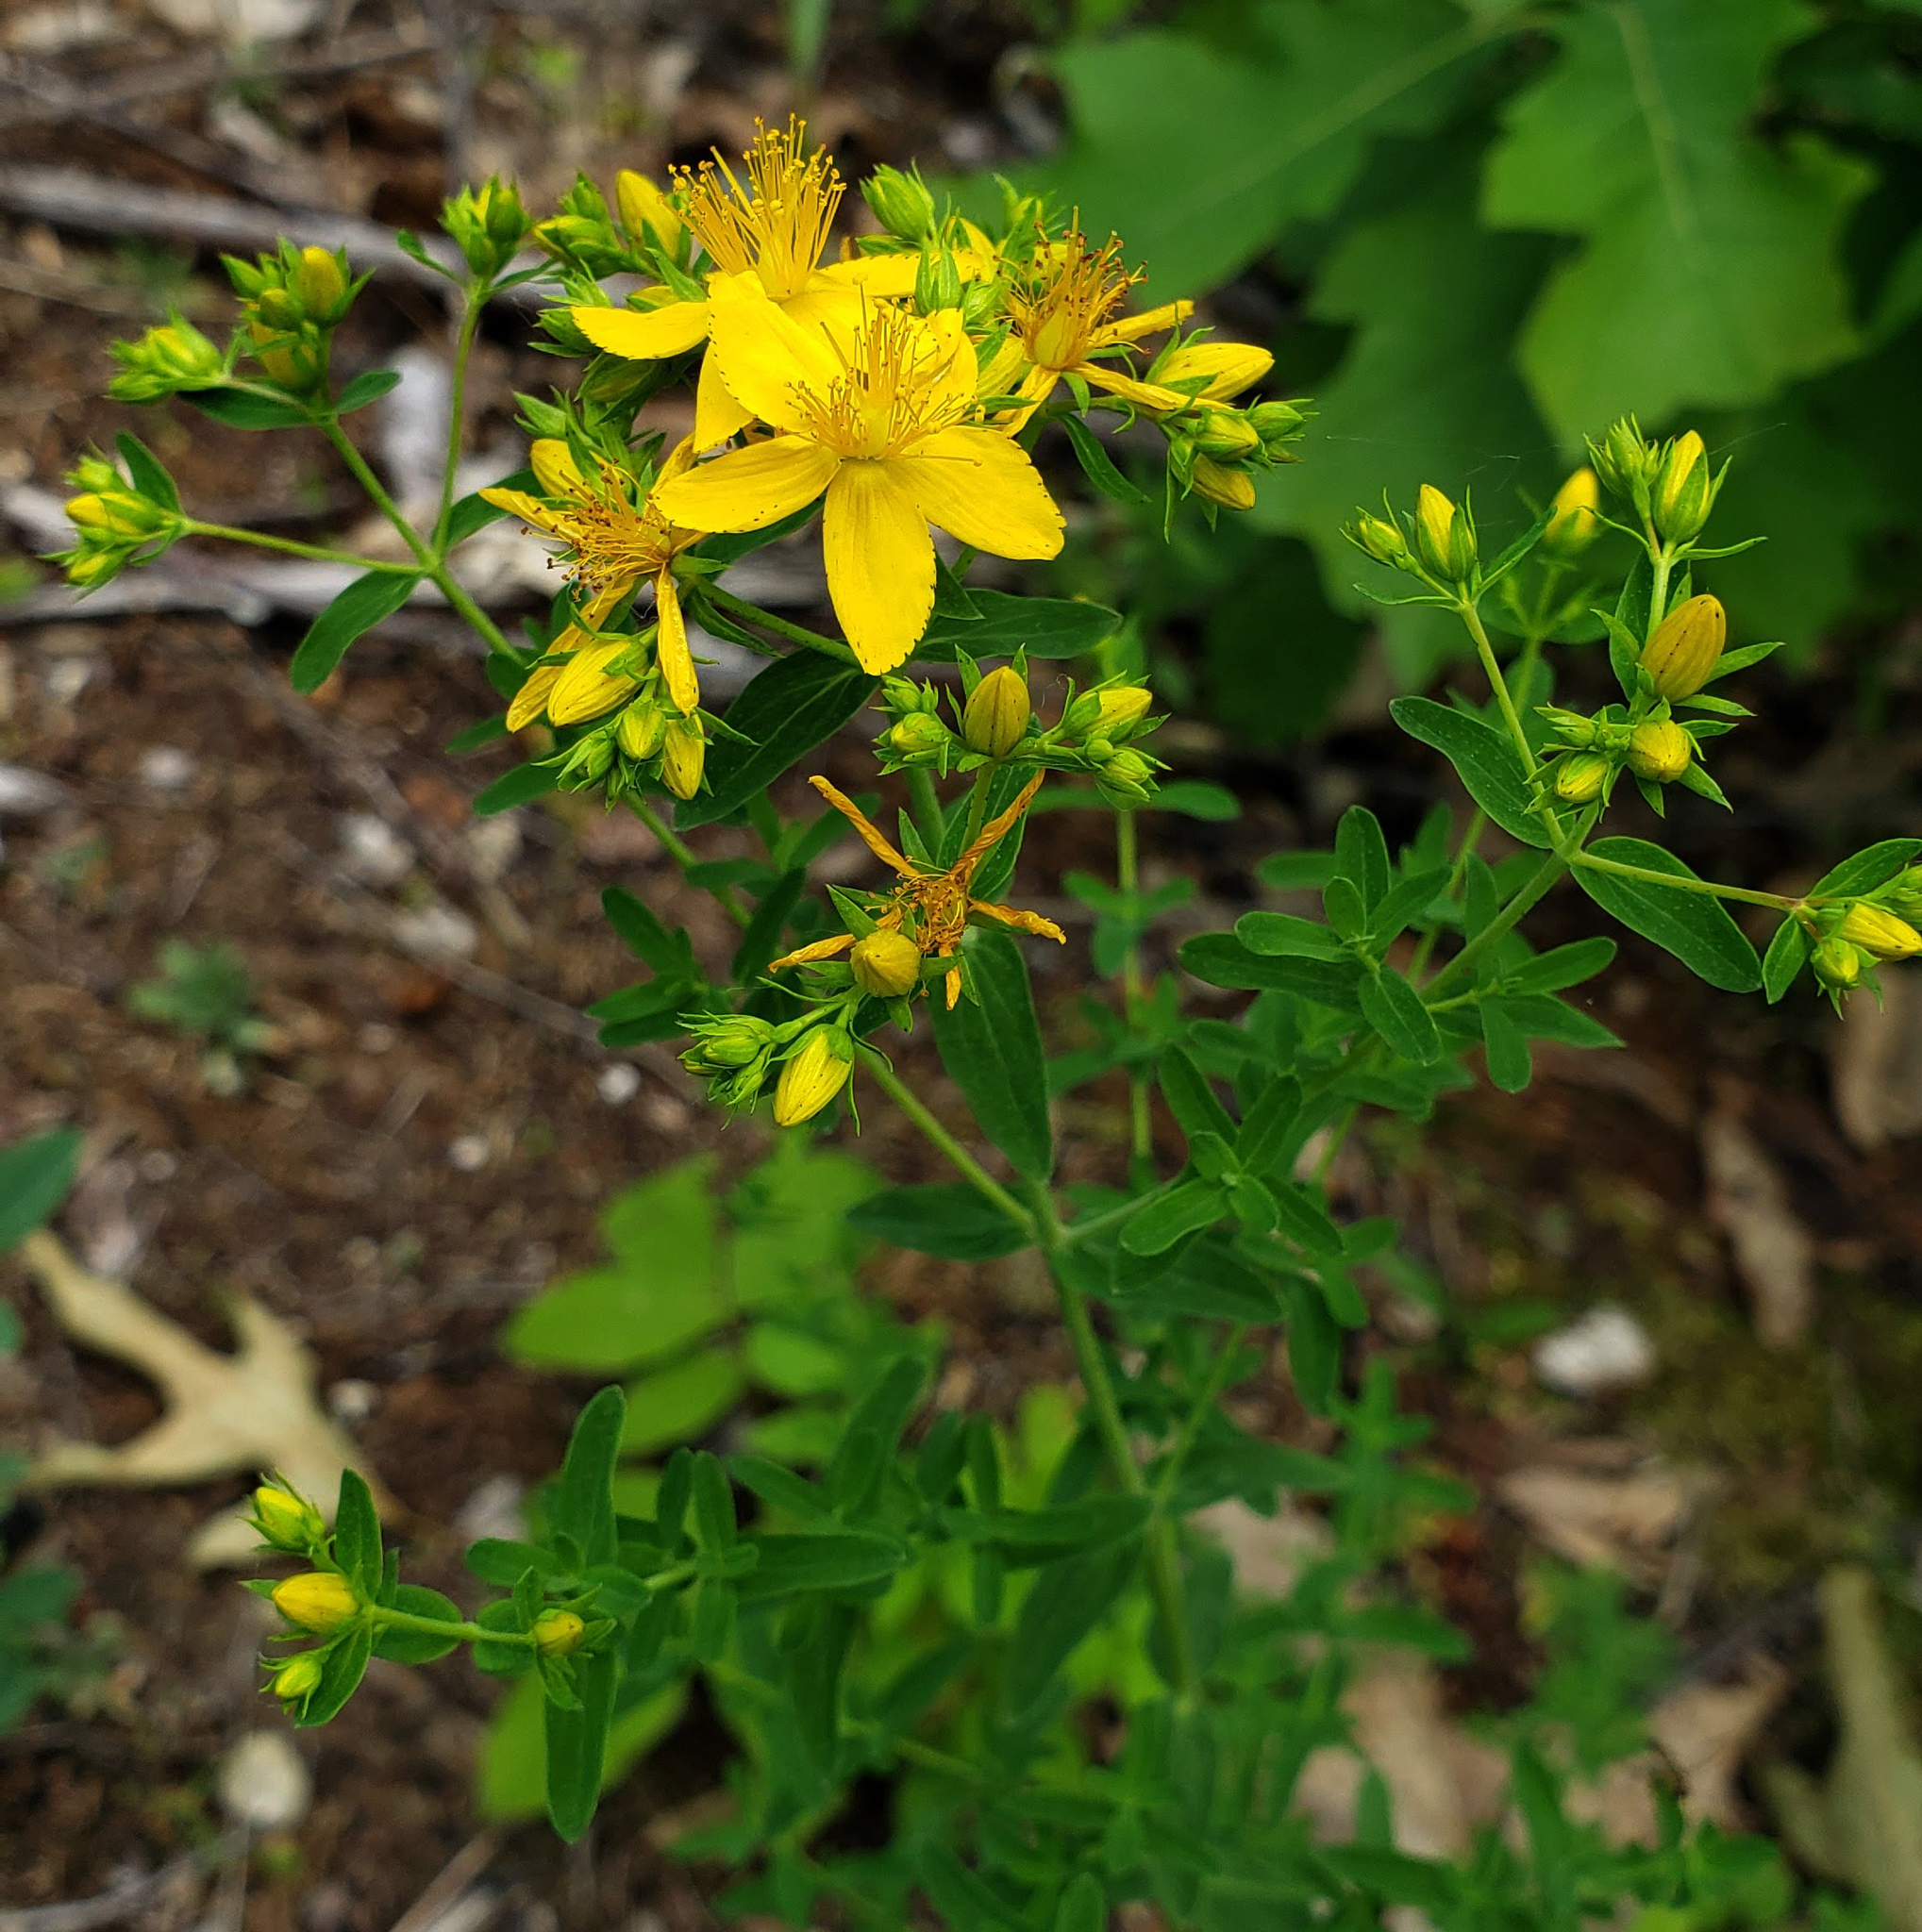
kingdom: Plantae
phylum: Tracheophyta
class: Magnoliopsida
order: Malpighiales
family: Hypericaceae
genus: Hypericum
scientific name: Hypericum perforatum
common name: Common st. johnswort
